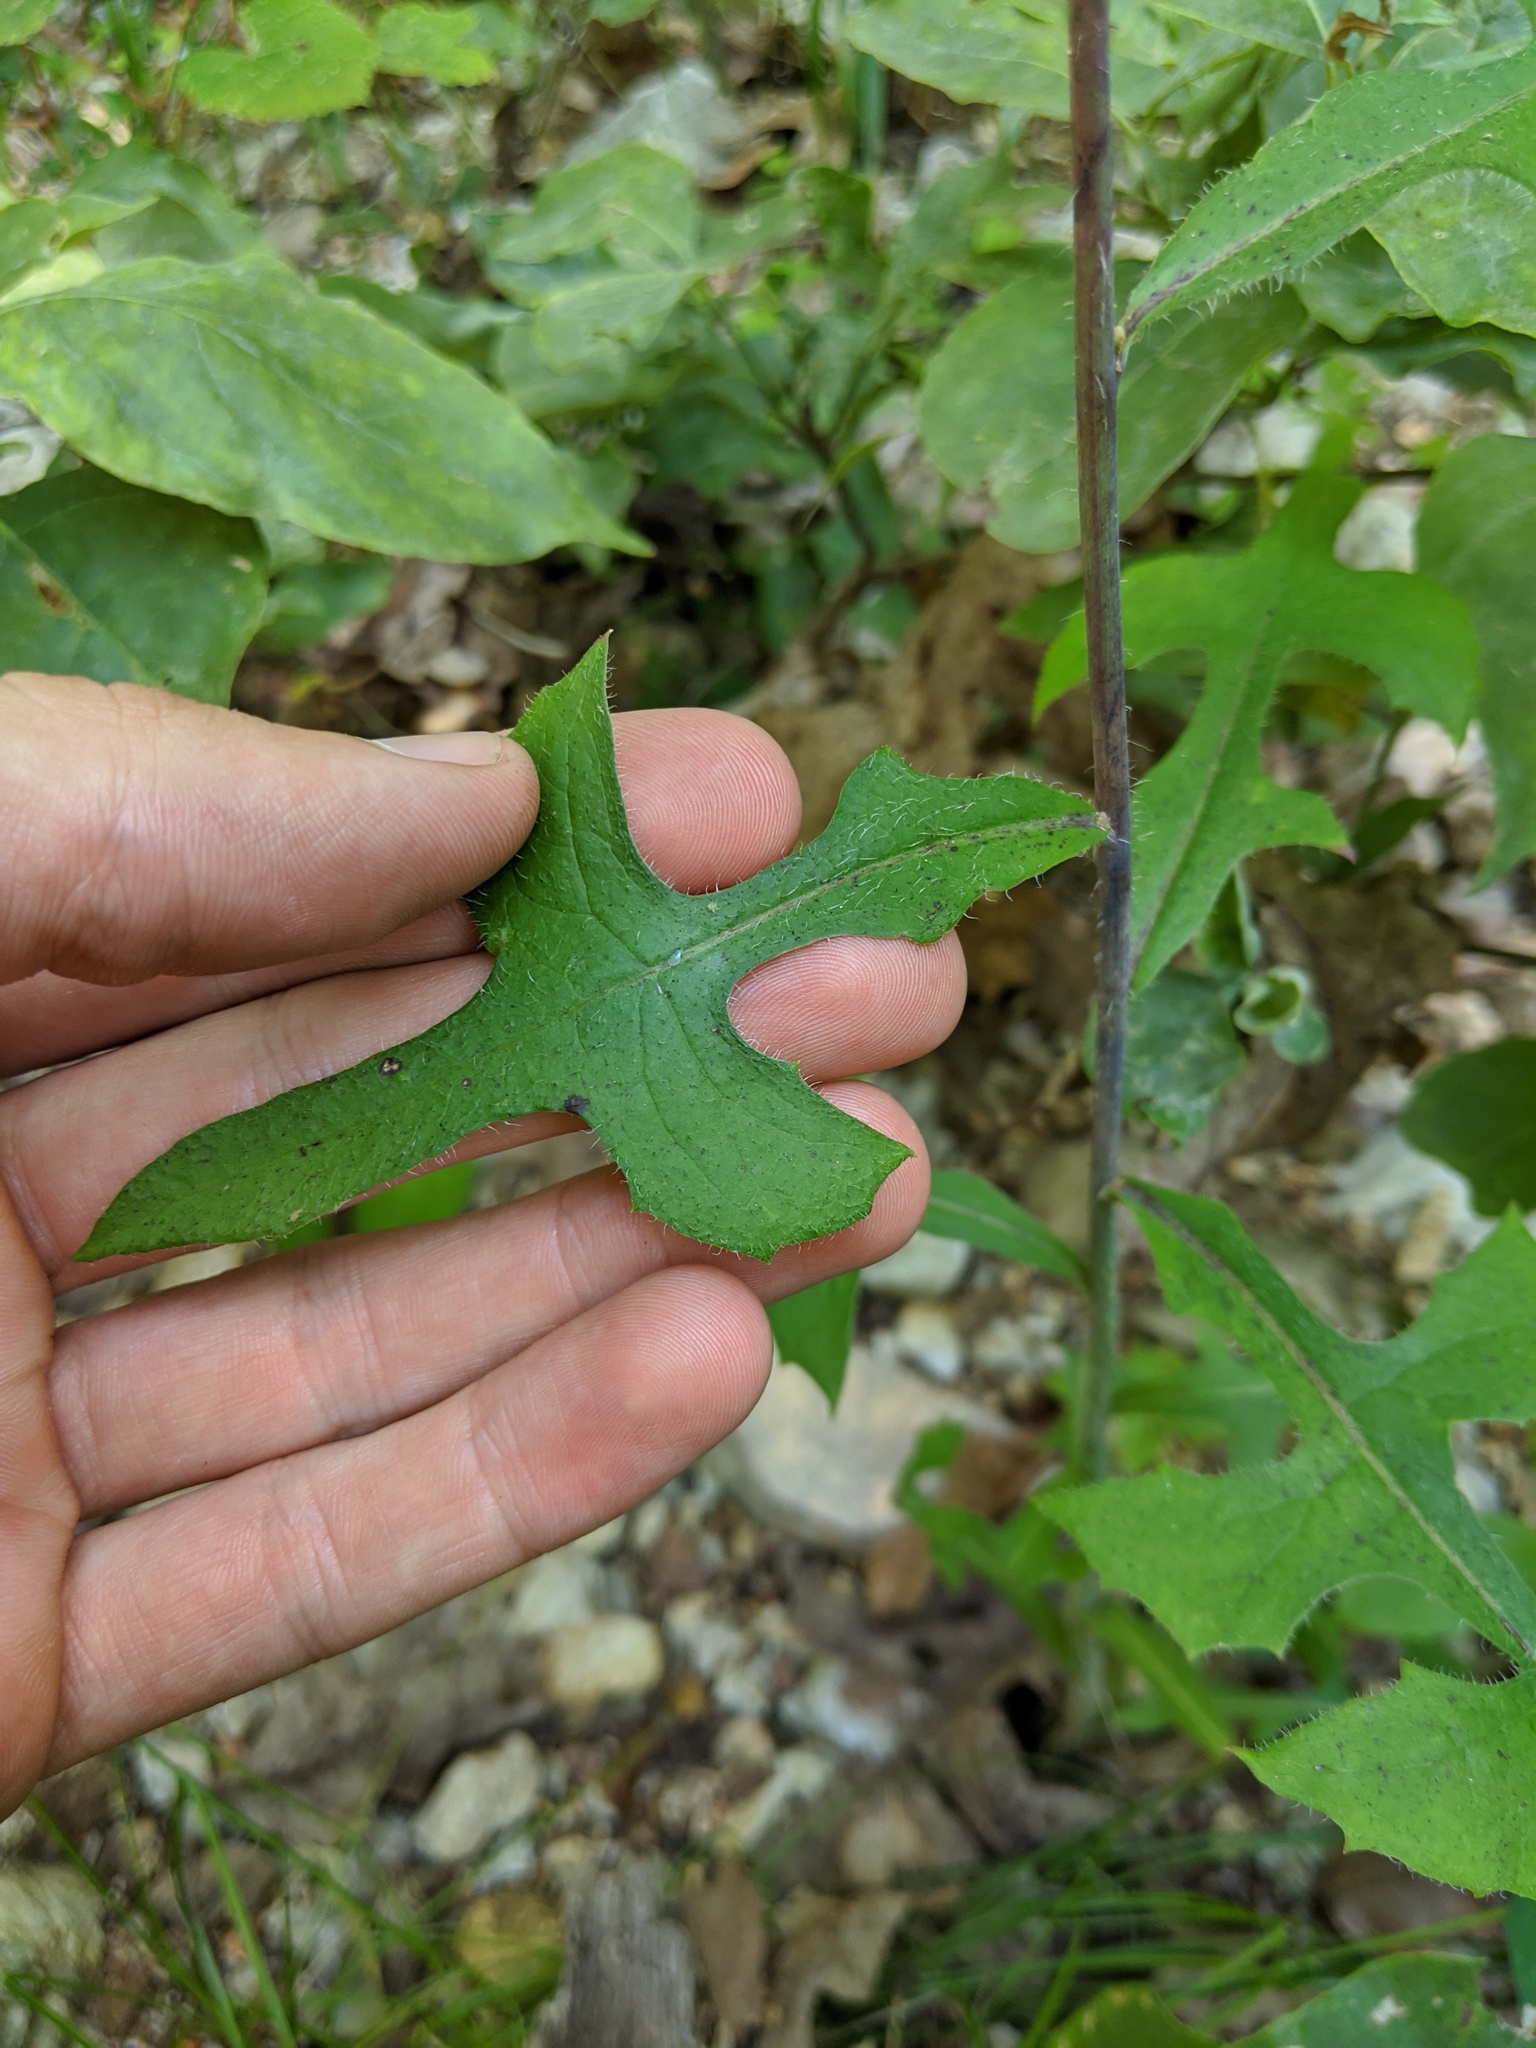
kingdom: Plantae
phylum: Tracheophyta
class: Magnoliopsida
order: Asterales
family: Asteraceae
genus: Lactuca
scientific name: Lactuca hirsuta
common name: Hairy lettuce
